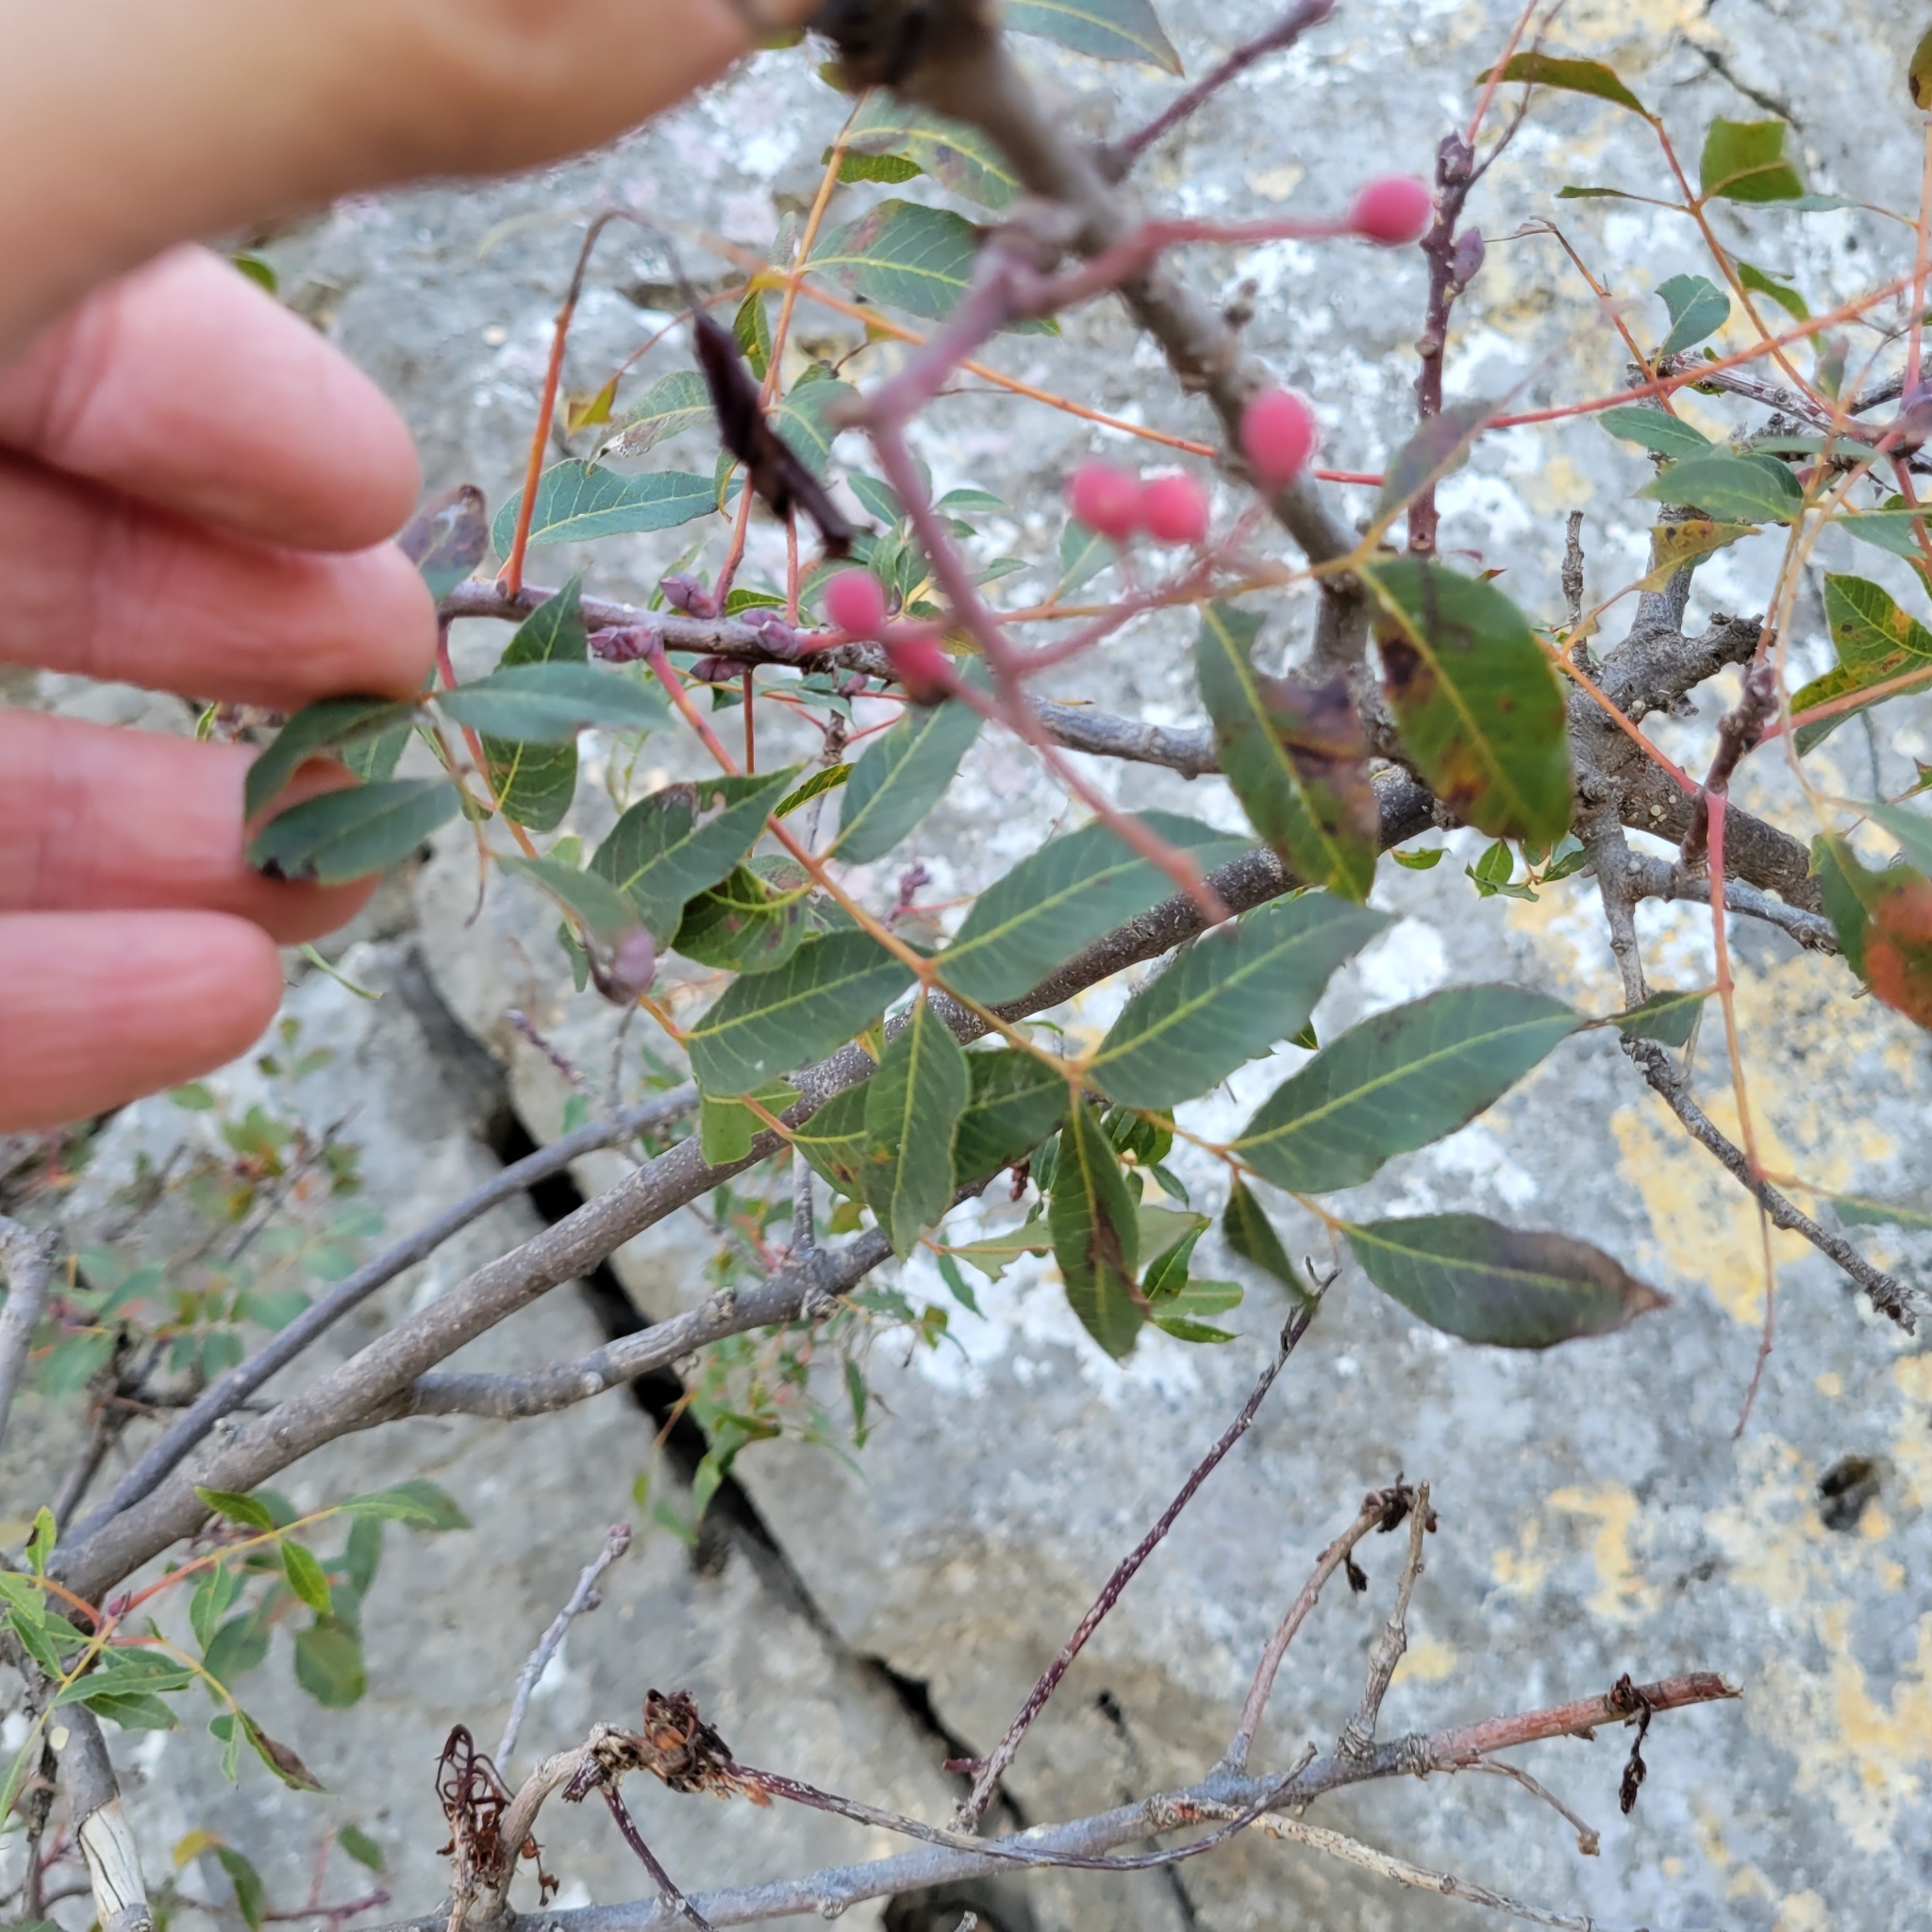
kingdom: Plantae
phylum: Tracheophyta
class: Magnoliopsida
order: Sapindales
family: Anacardiaceae
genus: Pistacia
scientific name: Pistacia terebinthus
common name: Terebinth
